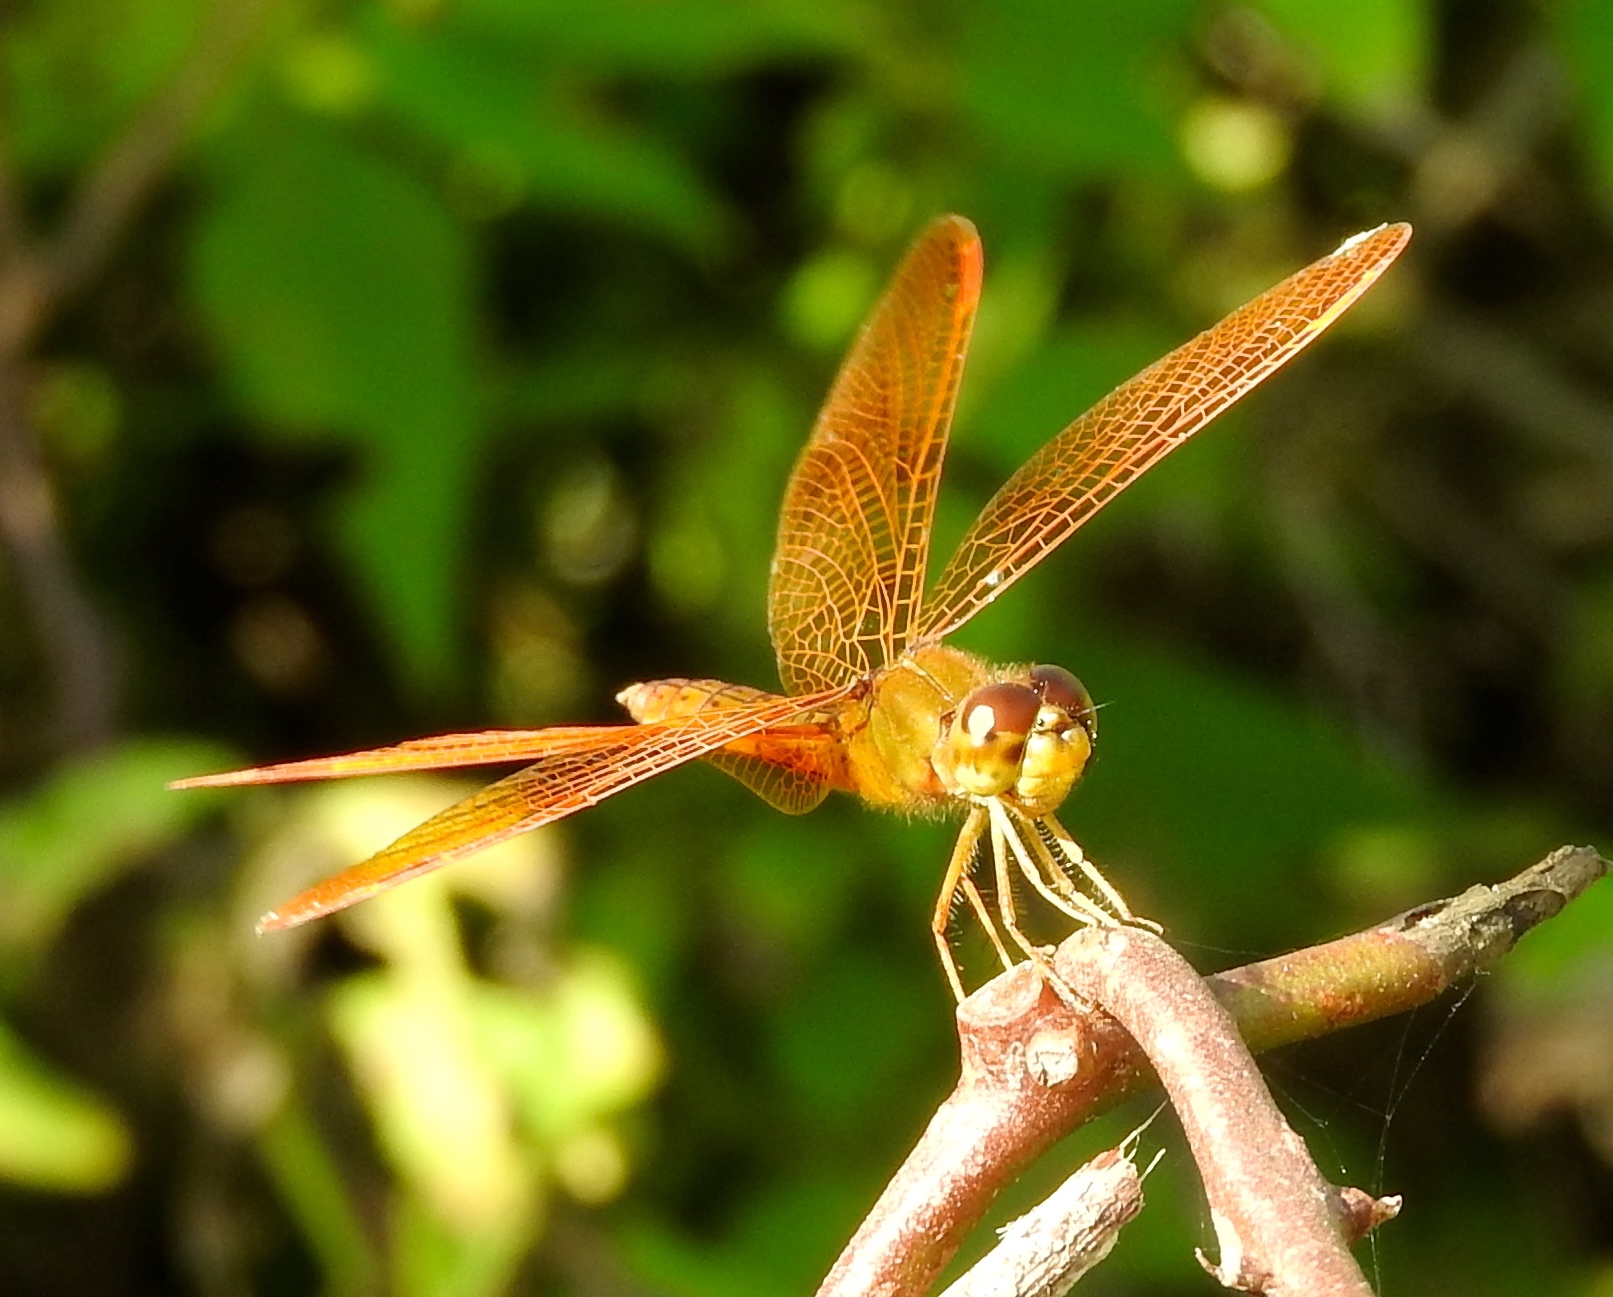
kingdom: Animalia
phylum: Arthropoda
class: Insecta
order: Odonata
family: Libellulidae
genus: Perithemis
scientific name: Perithemis
